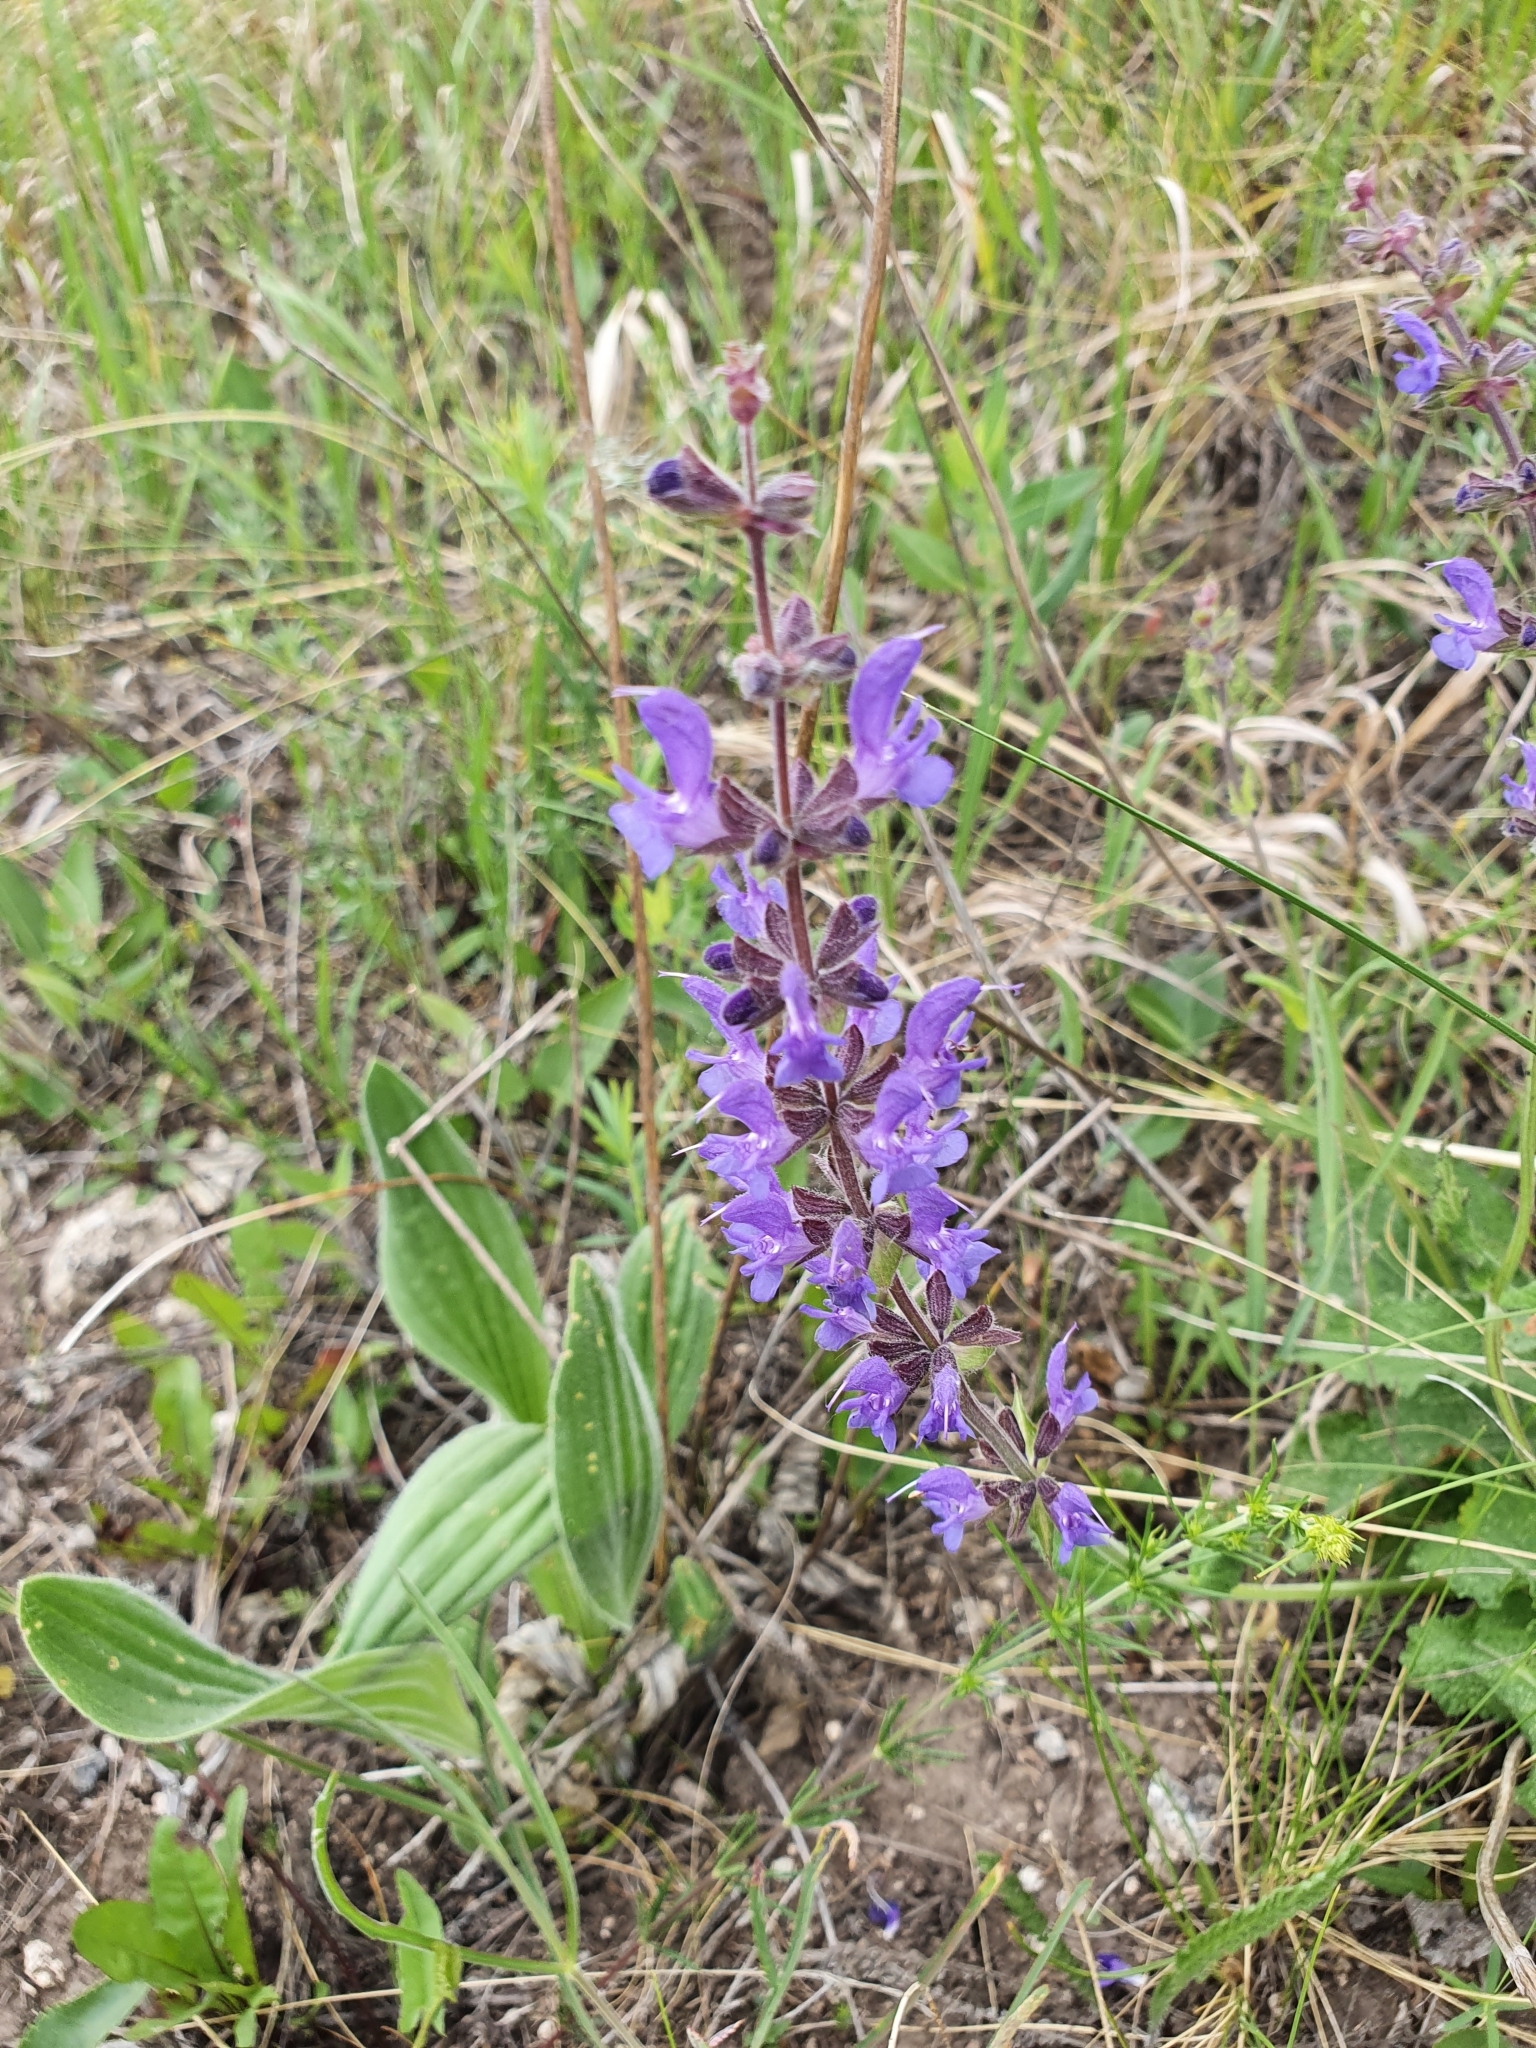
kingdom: Plantae
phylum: Tracheophyta
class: Magnoliopsida
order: Lamiales
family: Lamiaceae
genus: Salvia
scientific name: Salvia dumetorum
